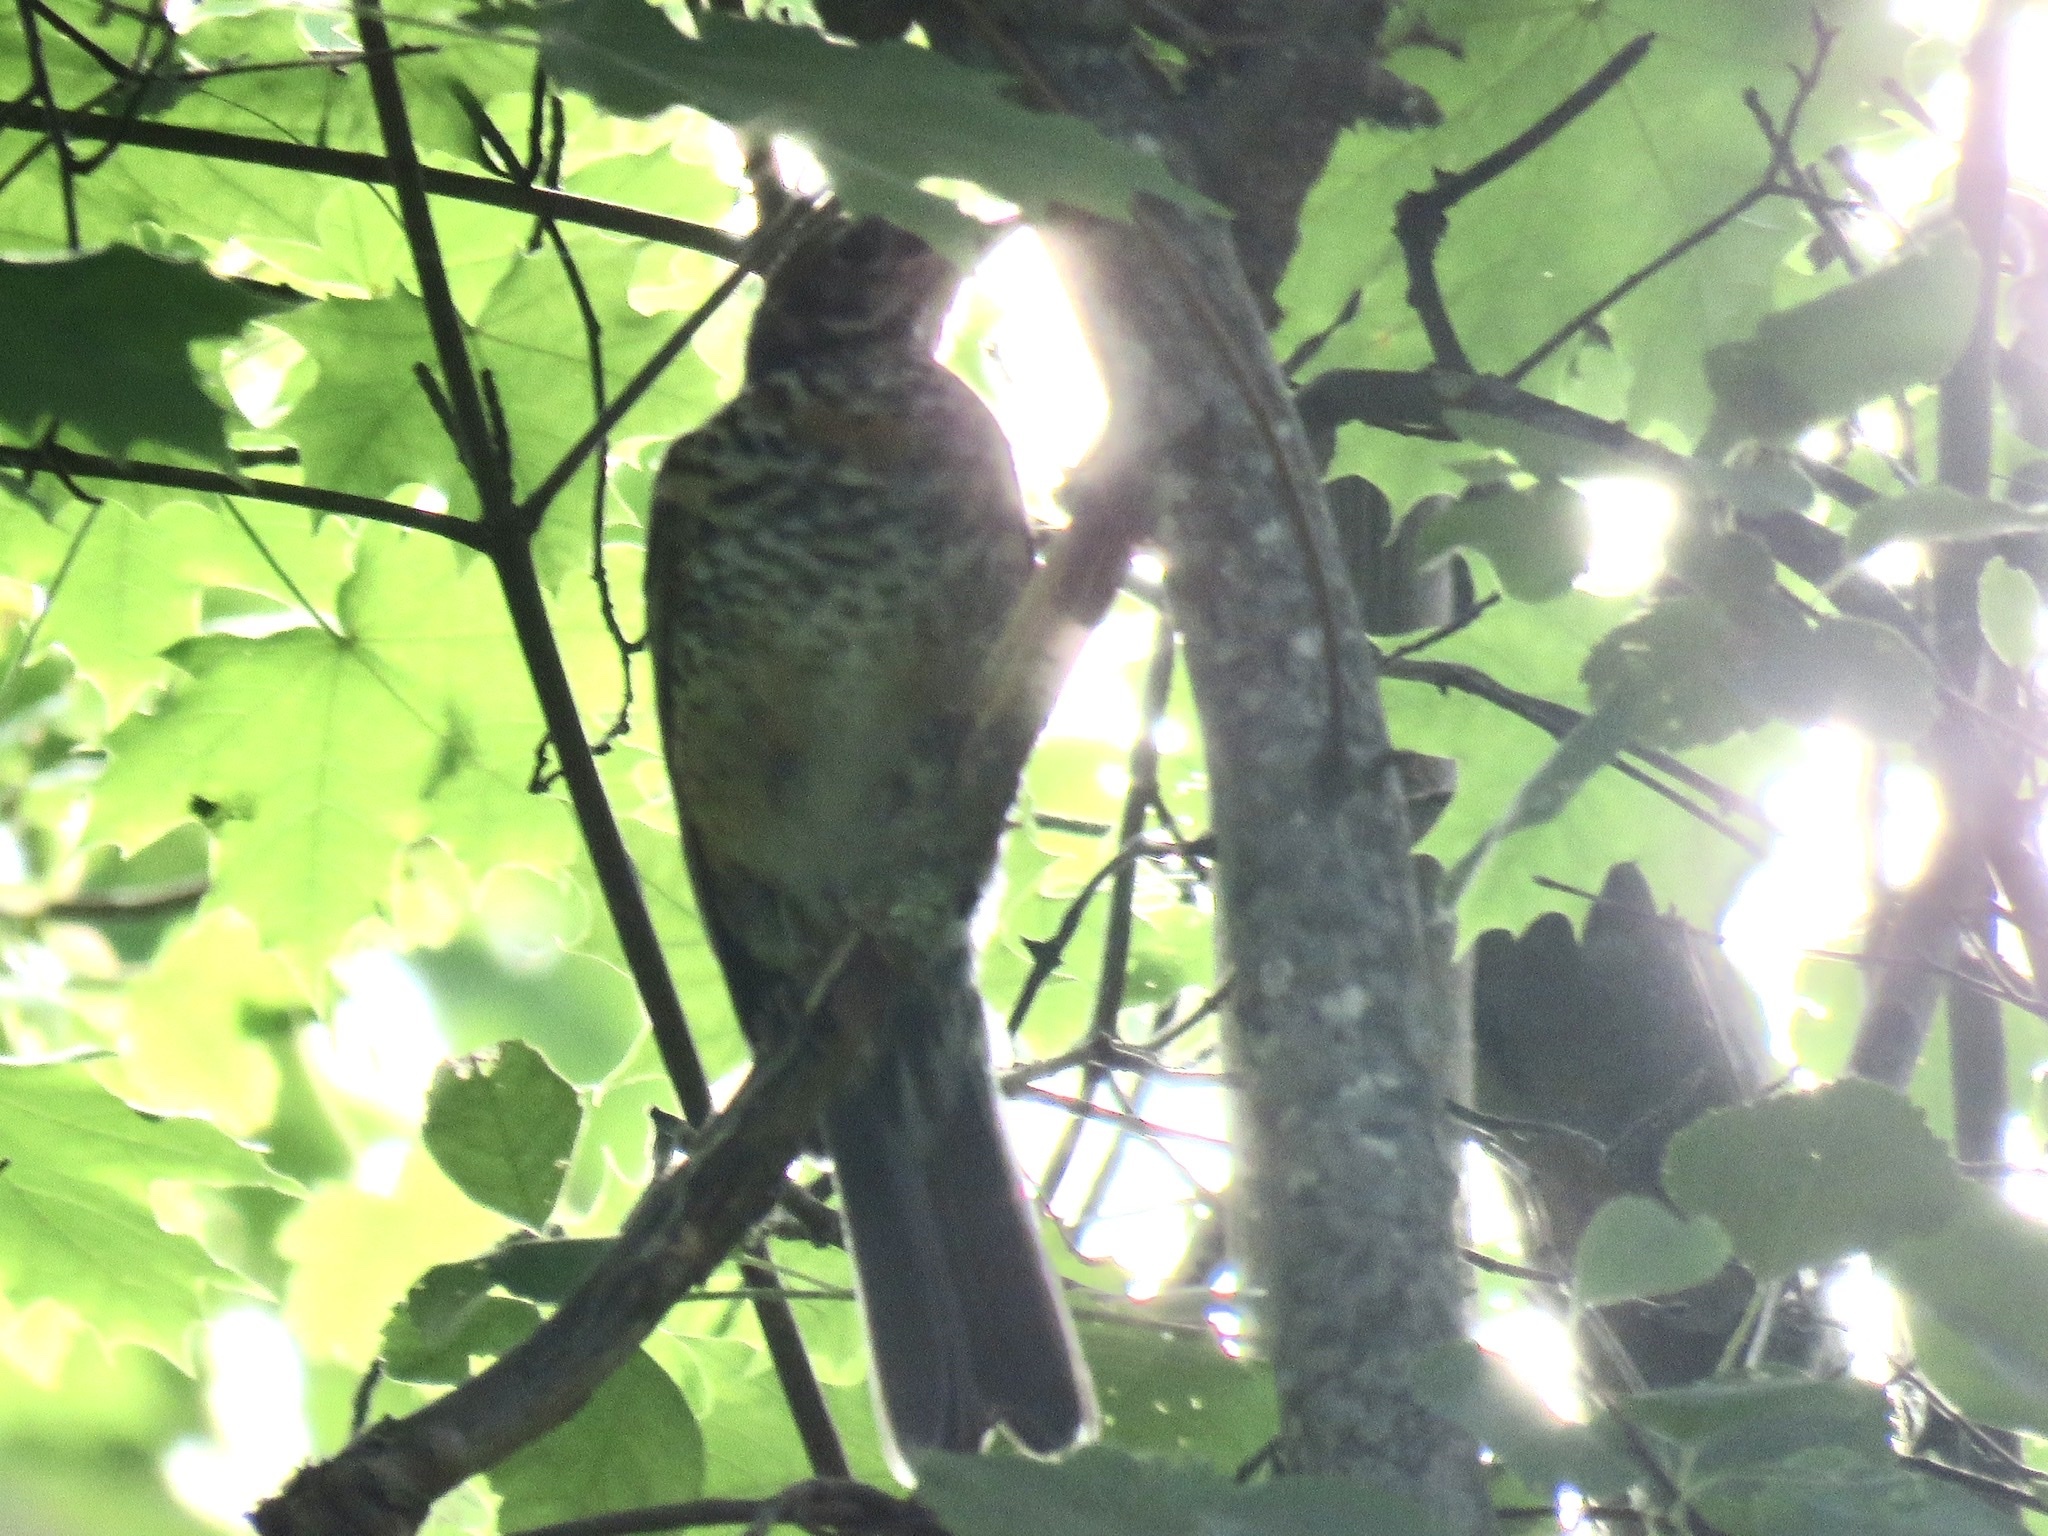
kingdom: Animalia
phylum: Chordata
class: Aves
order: Passeriformes
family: Turdidae
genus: Turdus
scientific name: Turdus migratorius
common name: American robin
